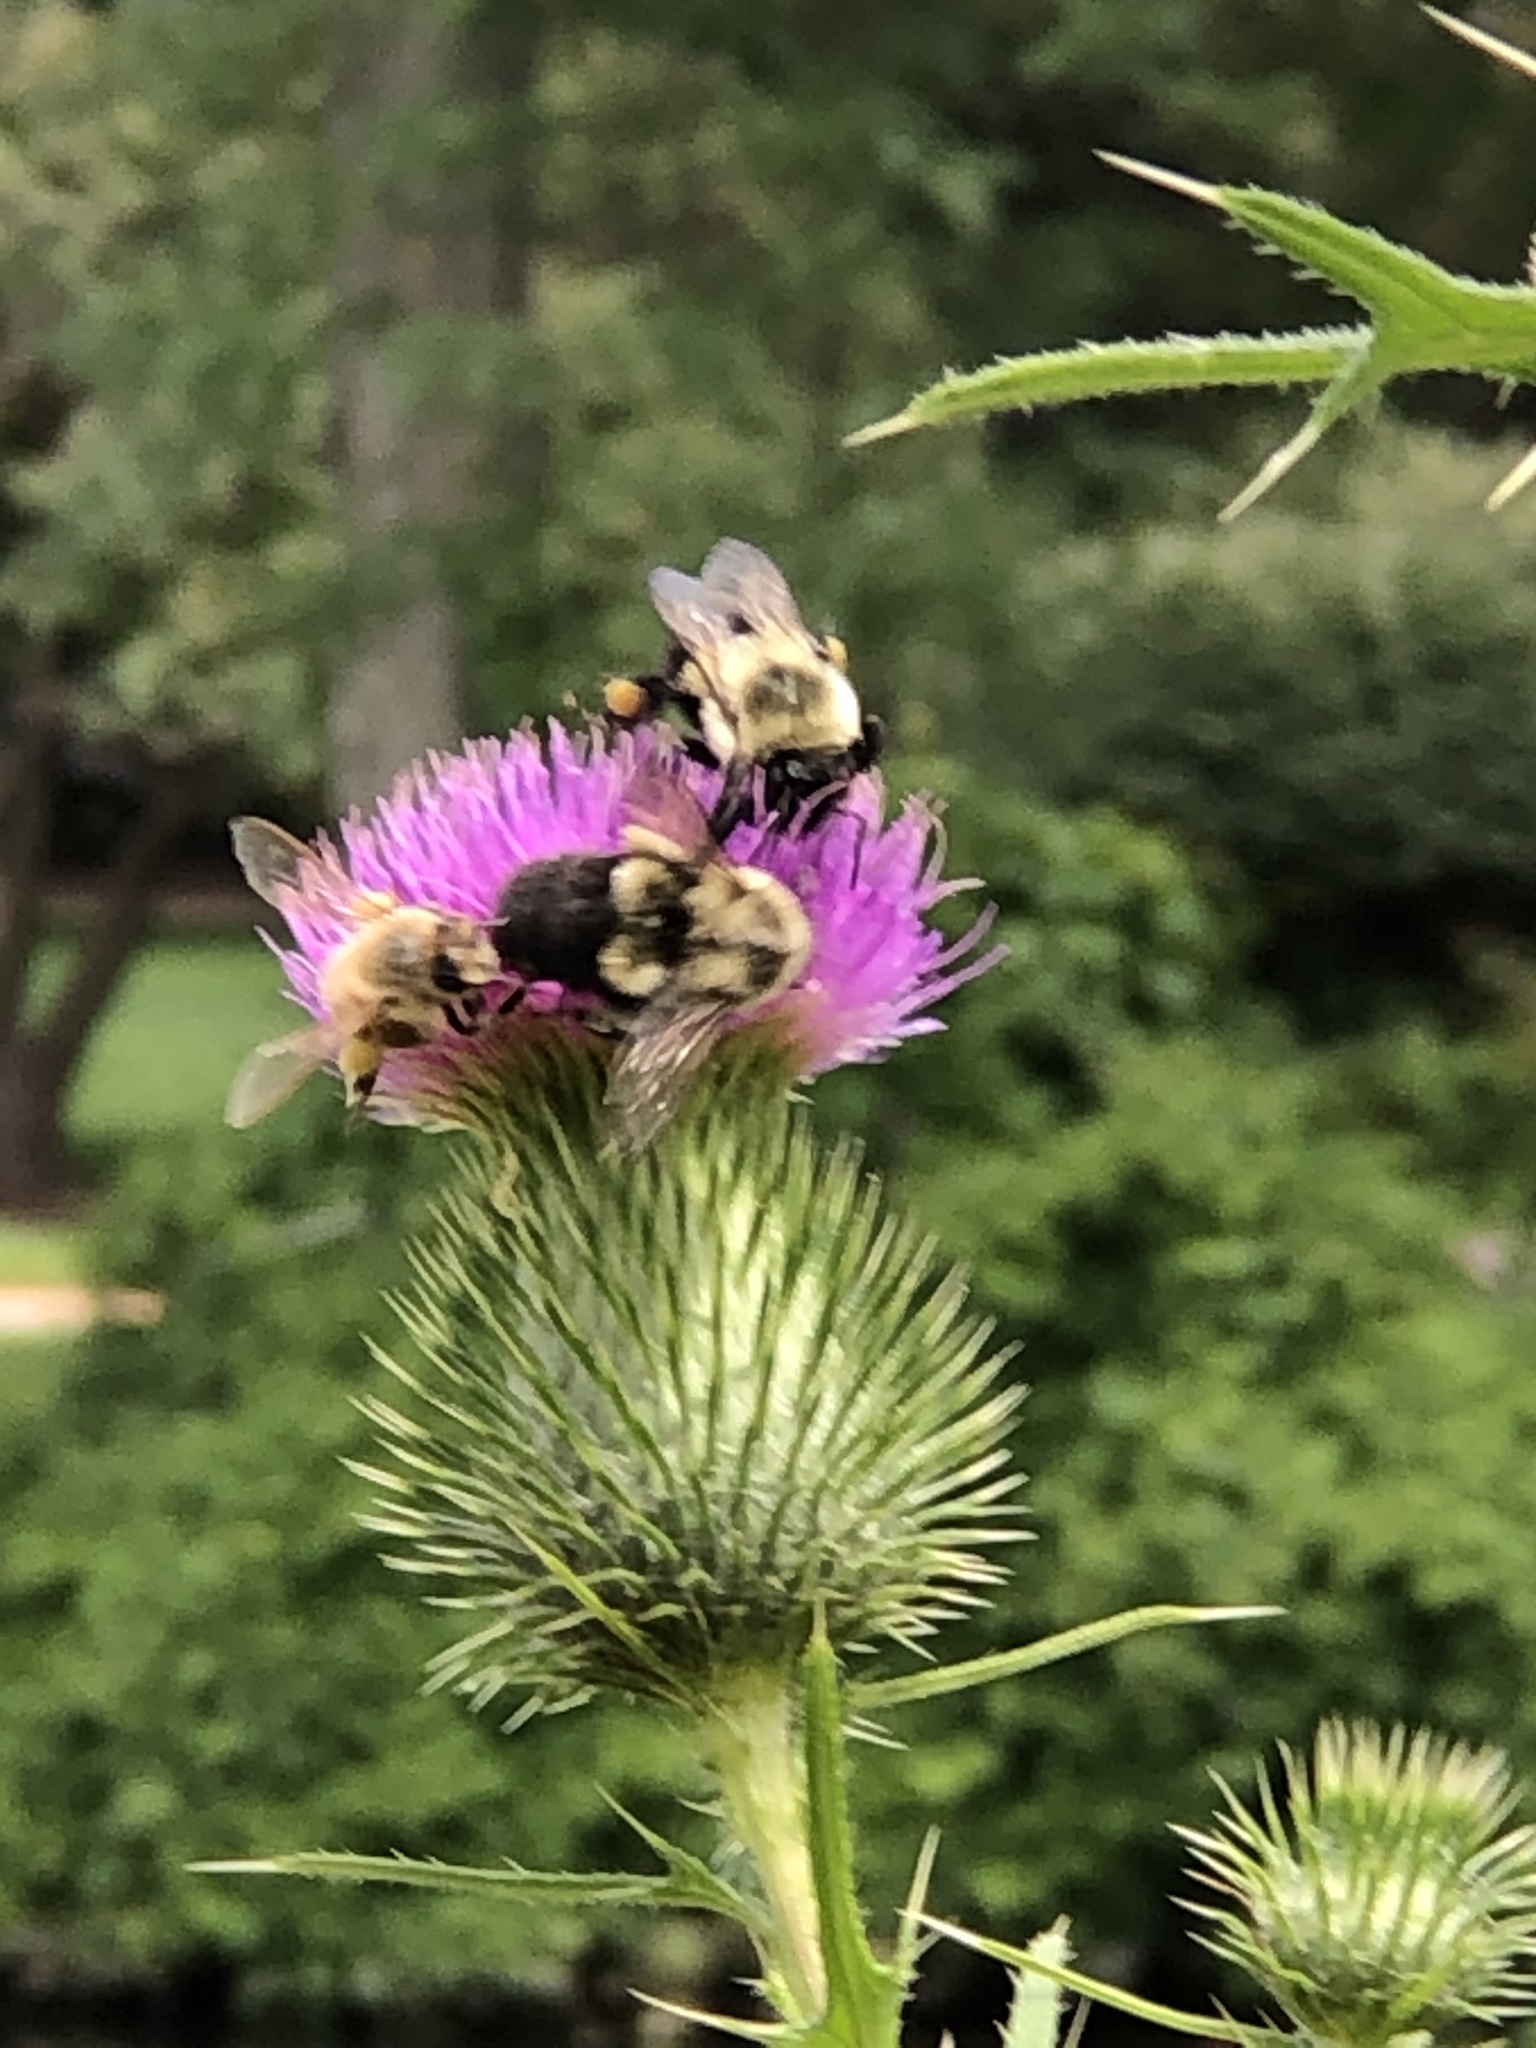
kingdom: Animalia
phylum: Arthropoda
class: Insecta
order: Hymenoptera
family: Apidae
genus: Bombus
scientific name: Bombus impatiens
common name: Common eastern bumble bee
